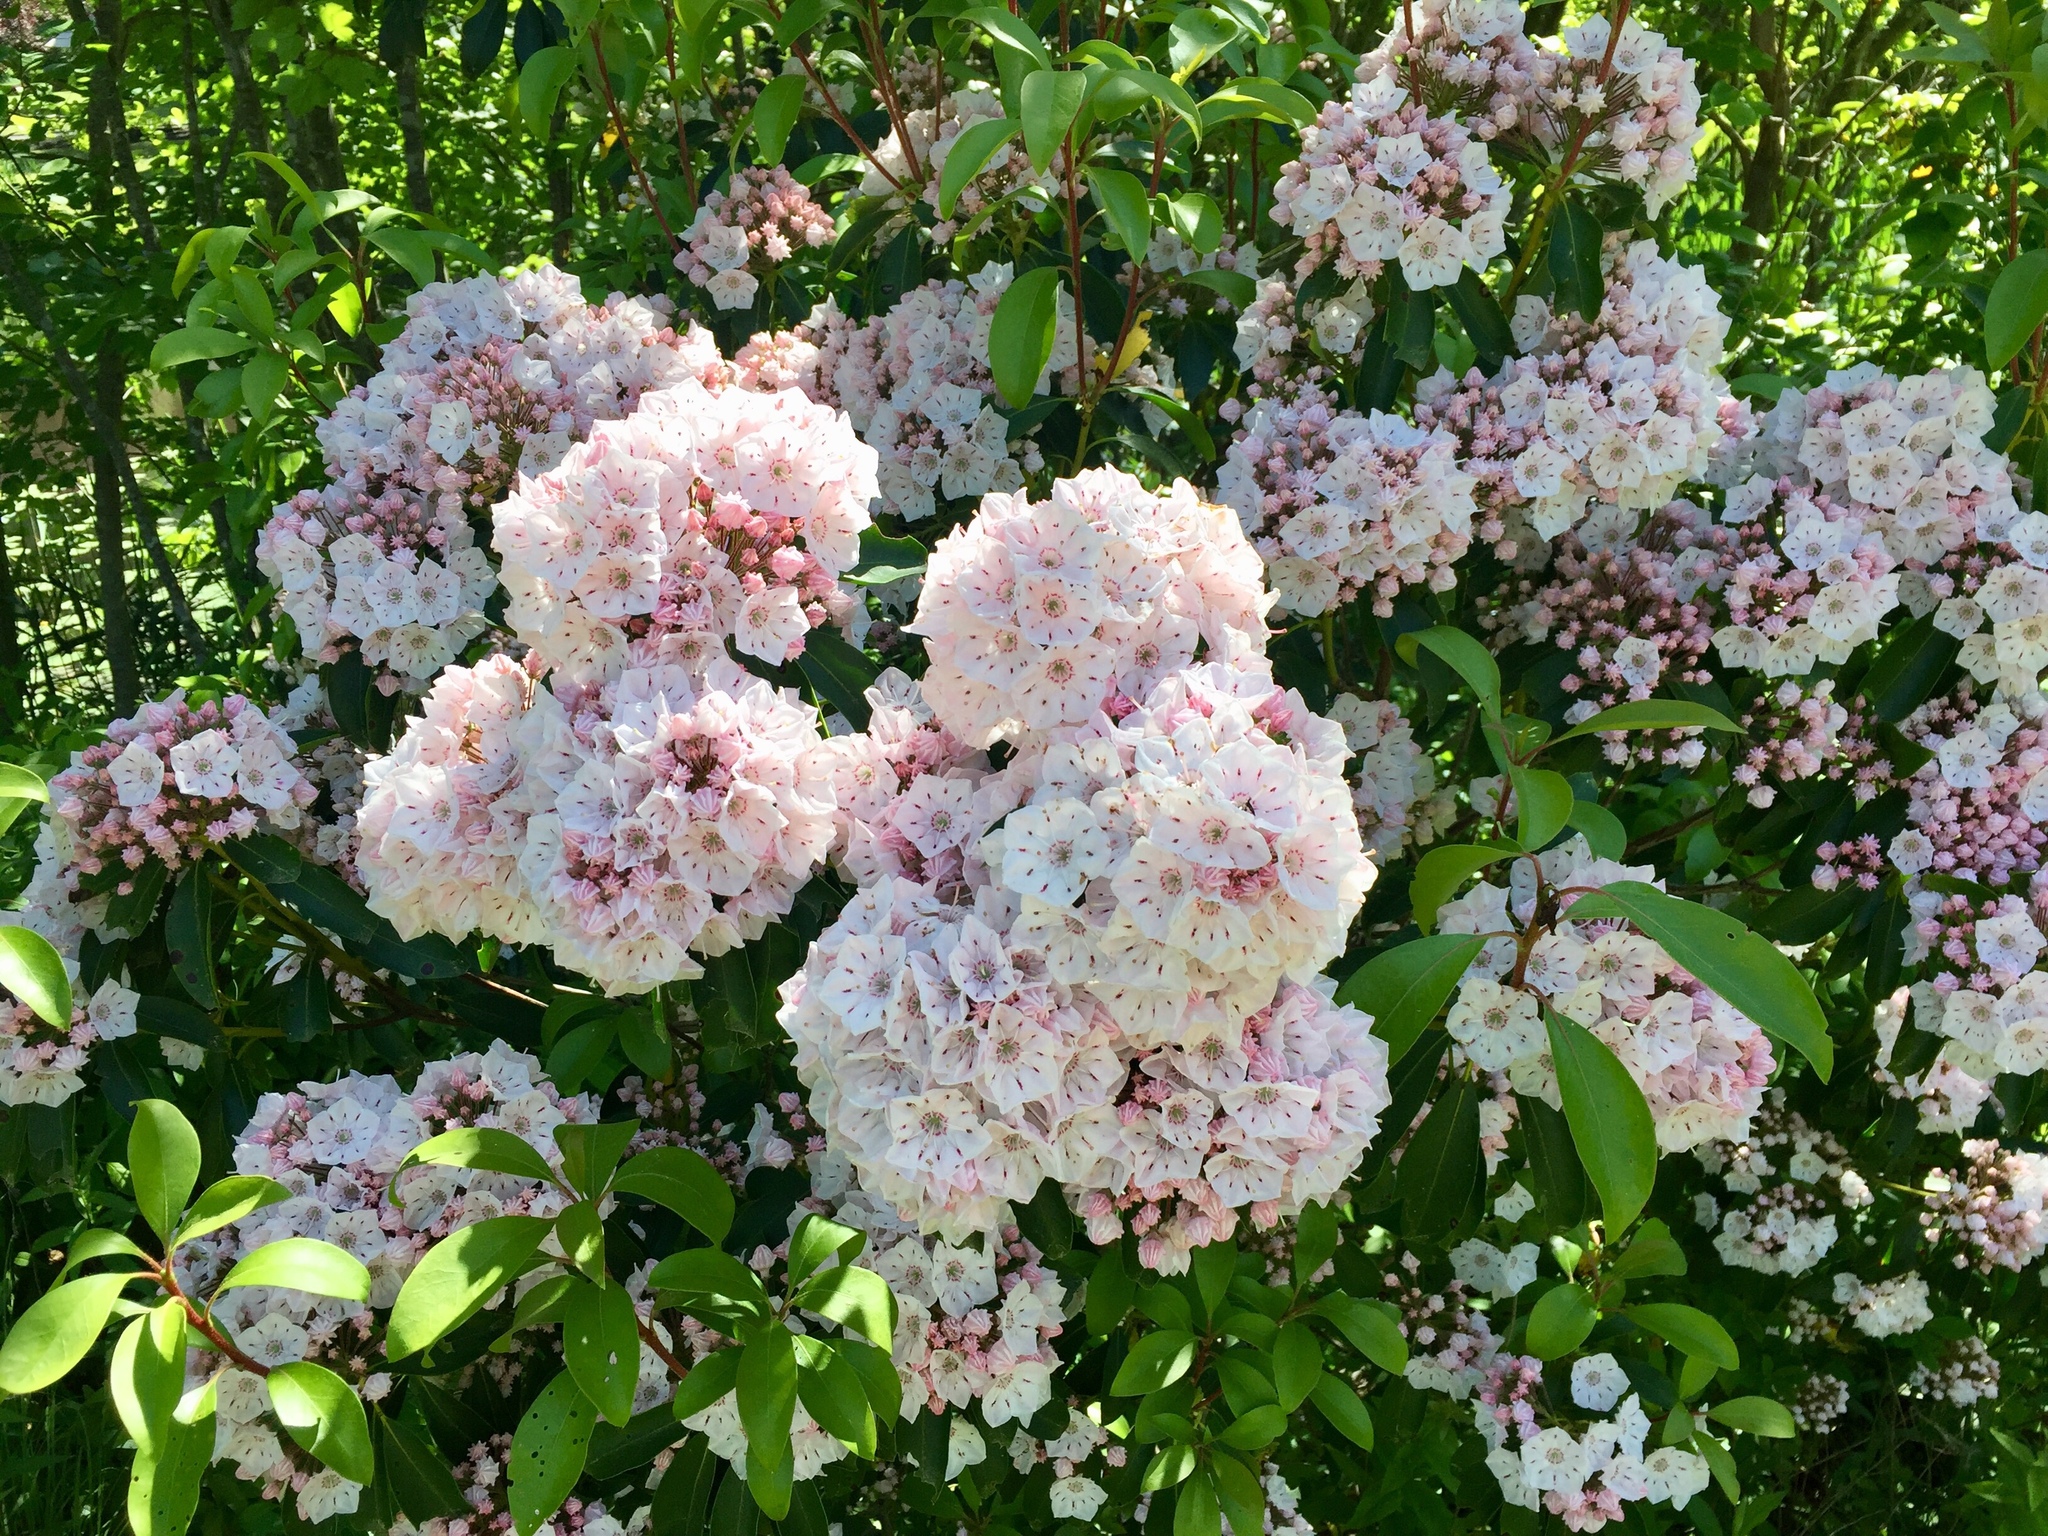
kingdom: Plantae
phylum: Tracheophyta
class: Magnoliopsida
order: Ericales
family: Ericaceae
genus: Kalmia
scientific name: Kalmia latifolia
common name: Mountain-laurel
